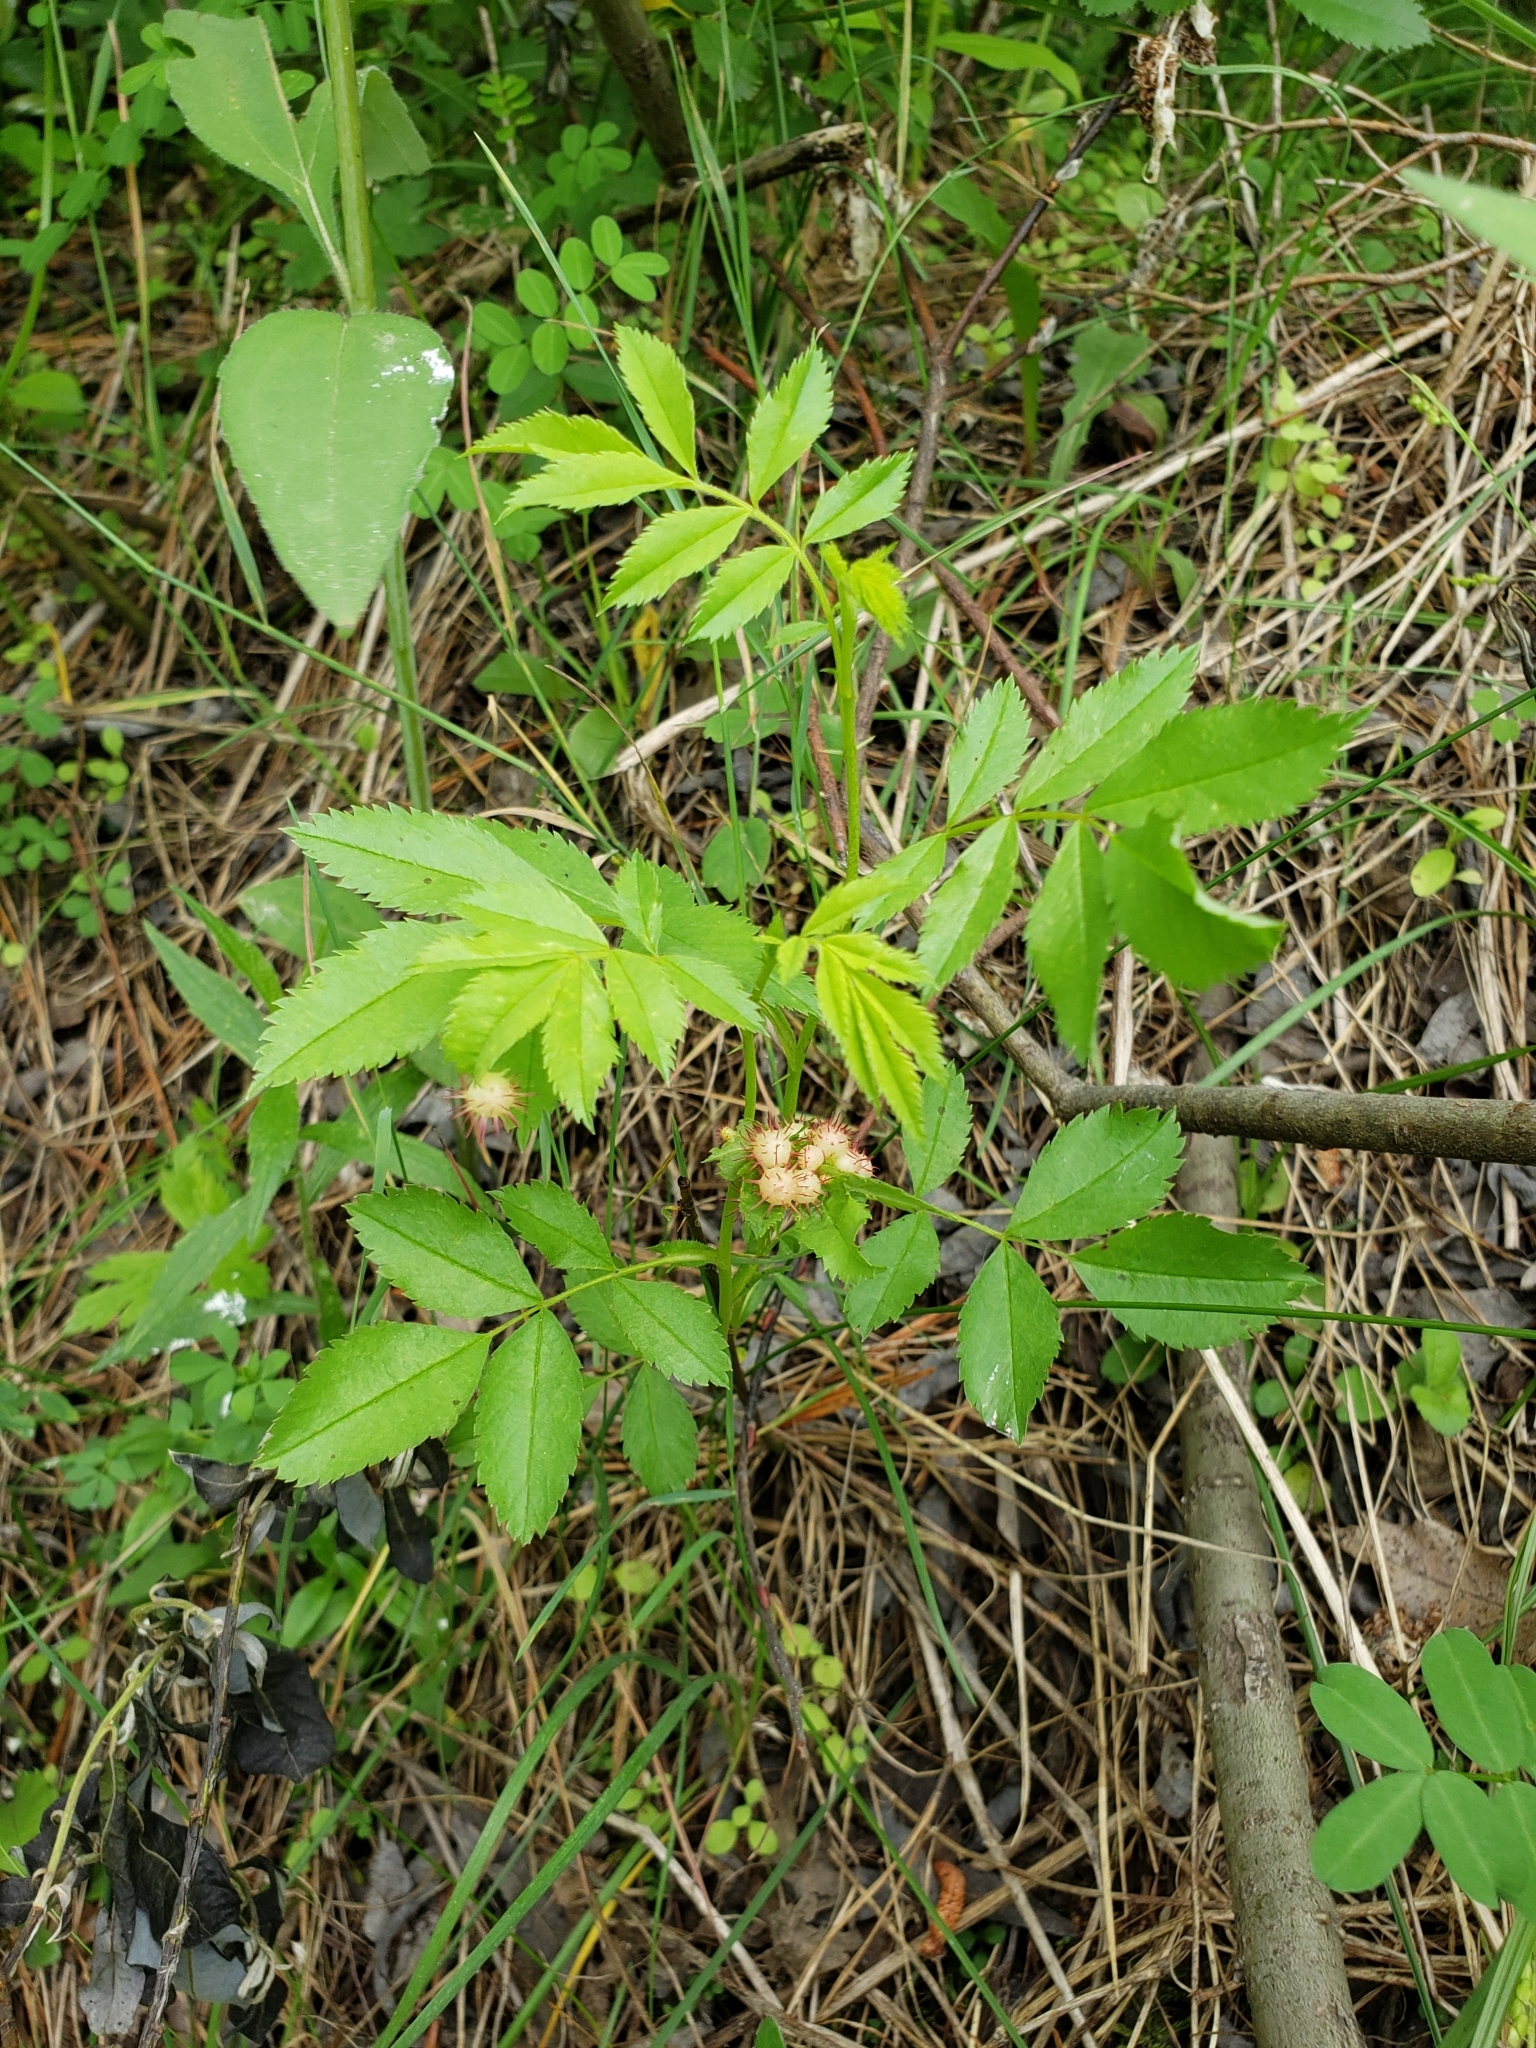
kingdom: Animalia
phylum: Arthropoda
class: Insecta
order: Hymenoptera
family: Cynipidae
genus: Diplolepis
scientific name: Diplolepis bicolor
